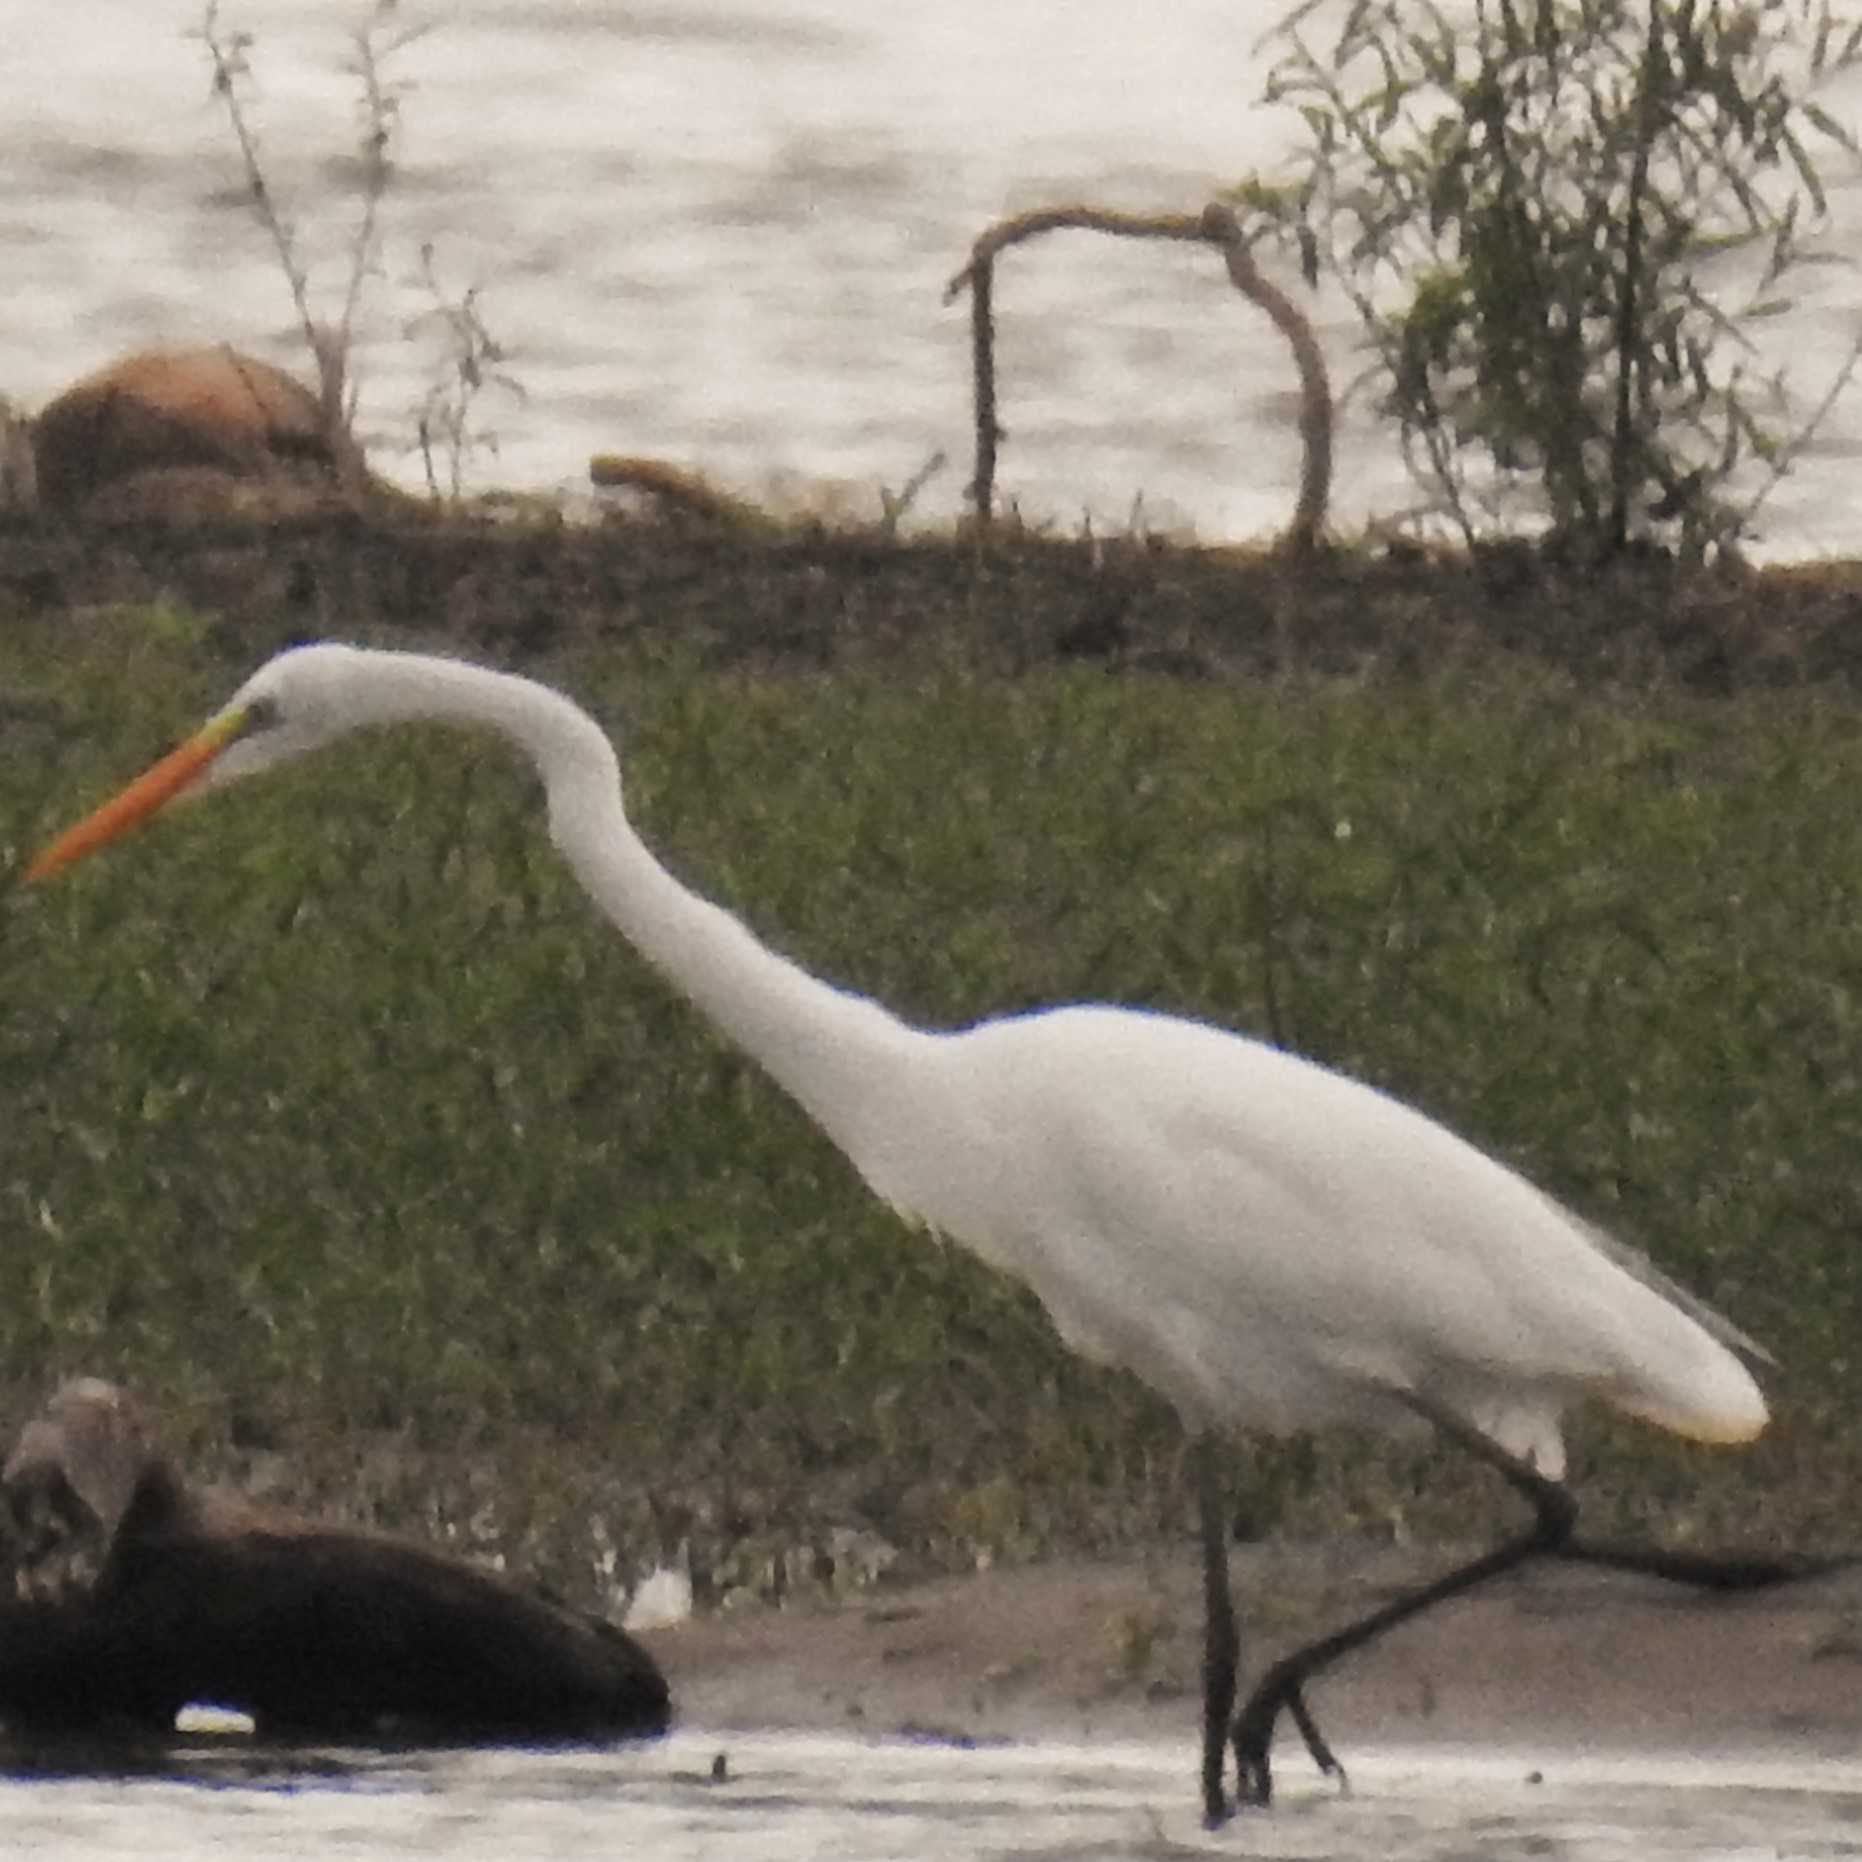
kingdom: Animalia
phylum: Chordata
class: Aves
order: Pelecaniformes
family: Ardeidae
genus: Ardea
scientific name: Ardea alba
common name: Great egret
